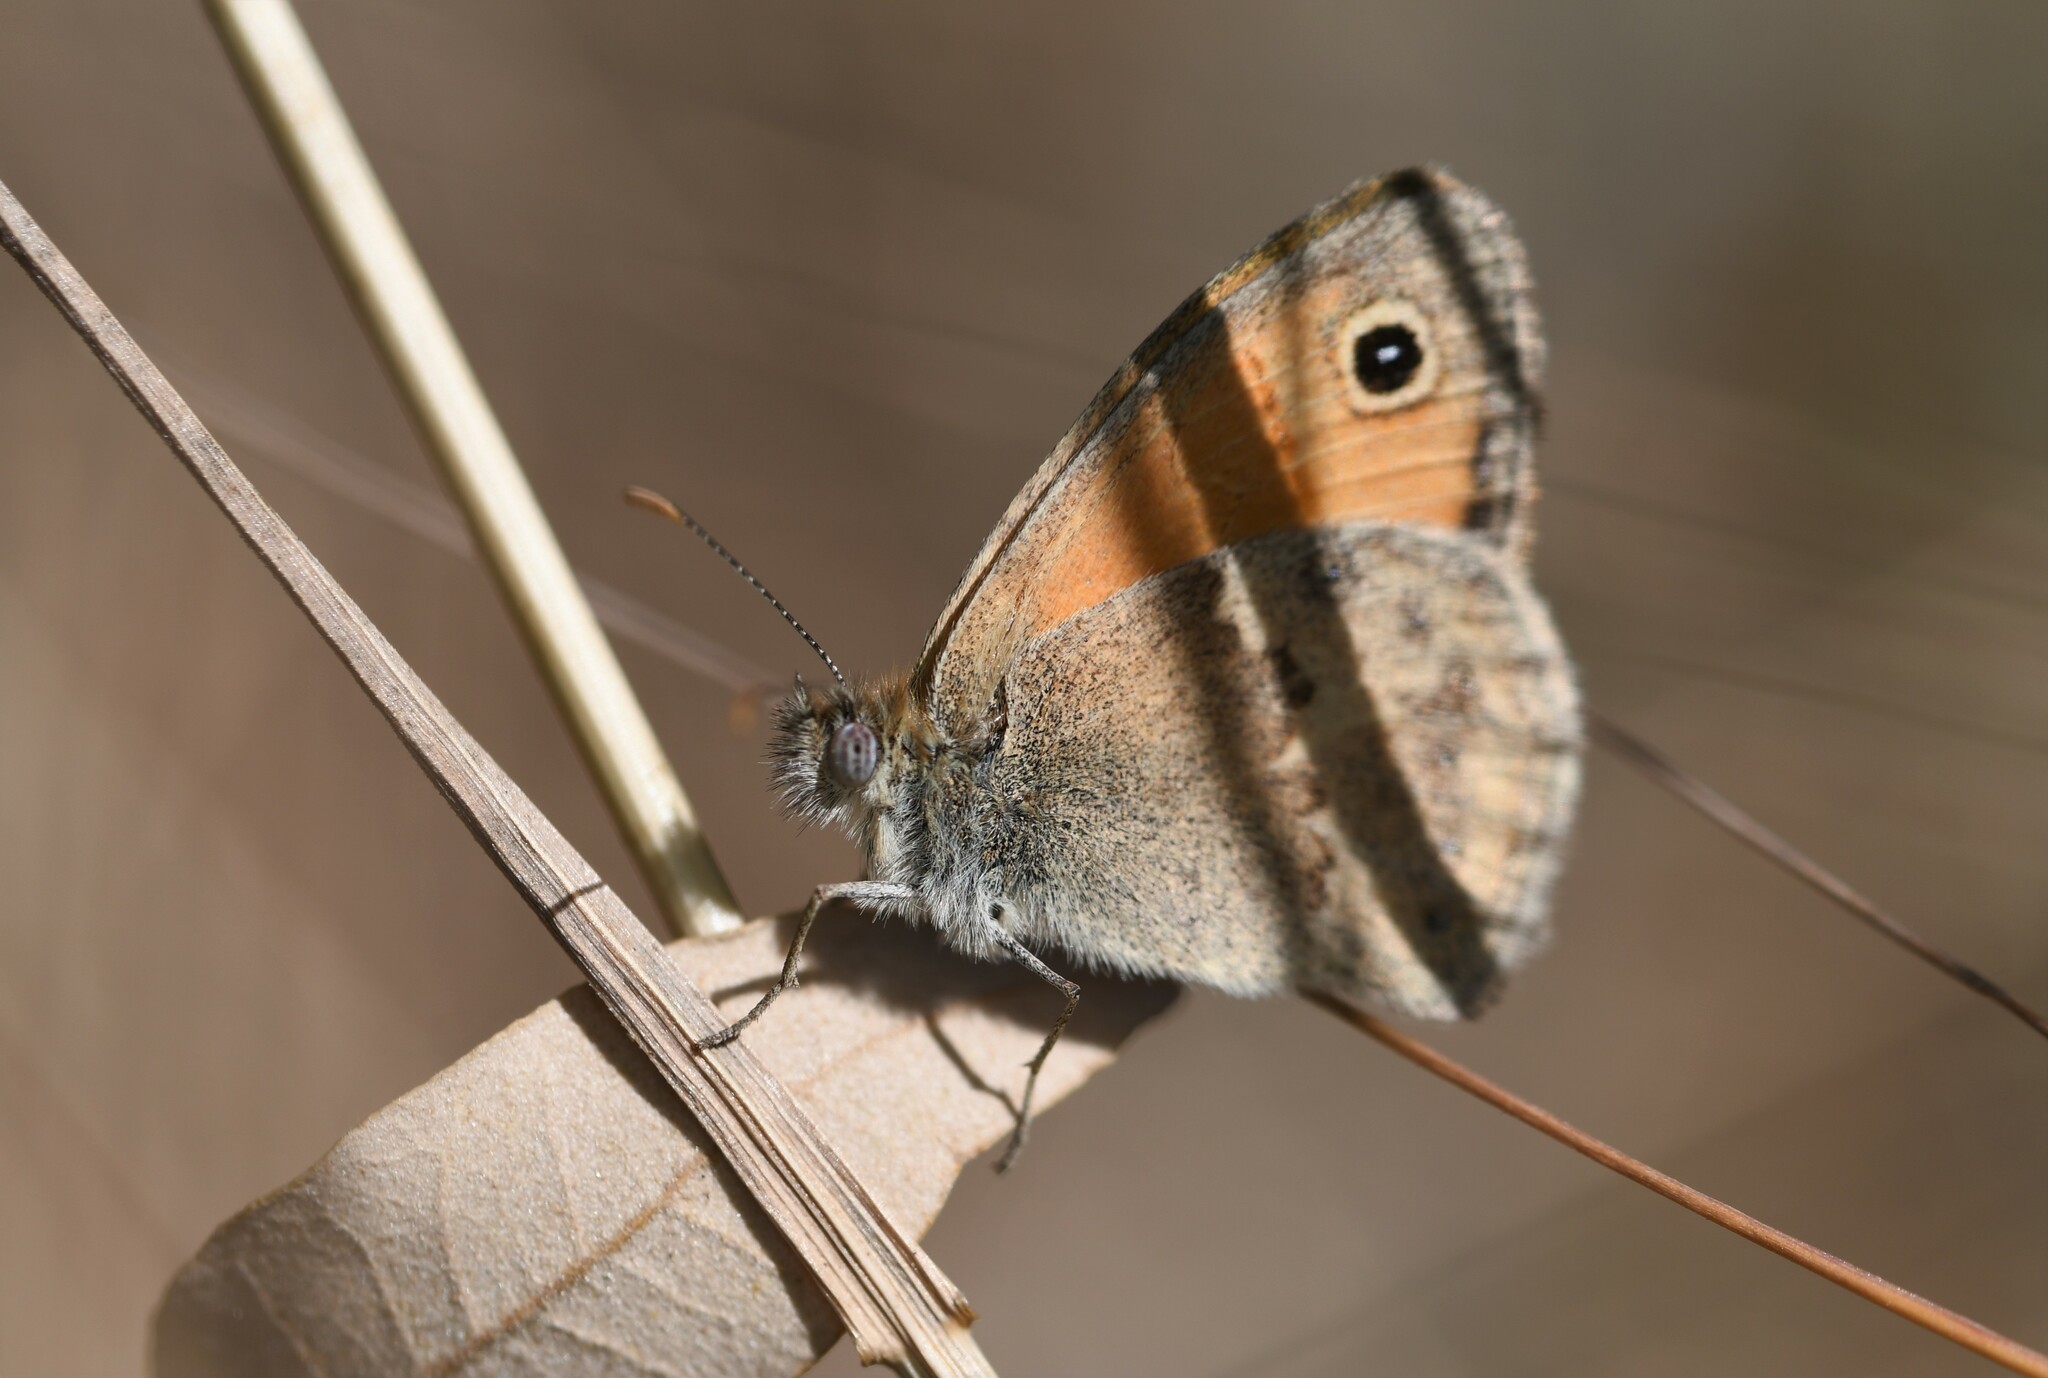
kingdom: Animalia
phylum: Arthropoda
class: Insecta
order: Lepidoptera
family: Nymphalidae
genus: Coenonympha
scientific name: Coenonympha pamphilus
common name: Small heath
